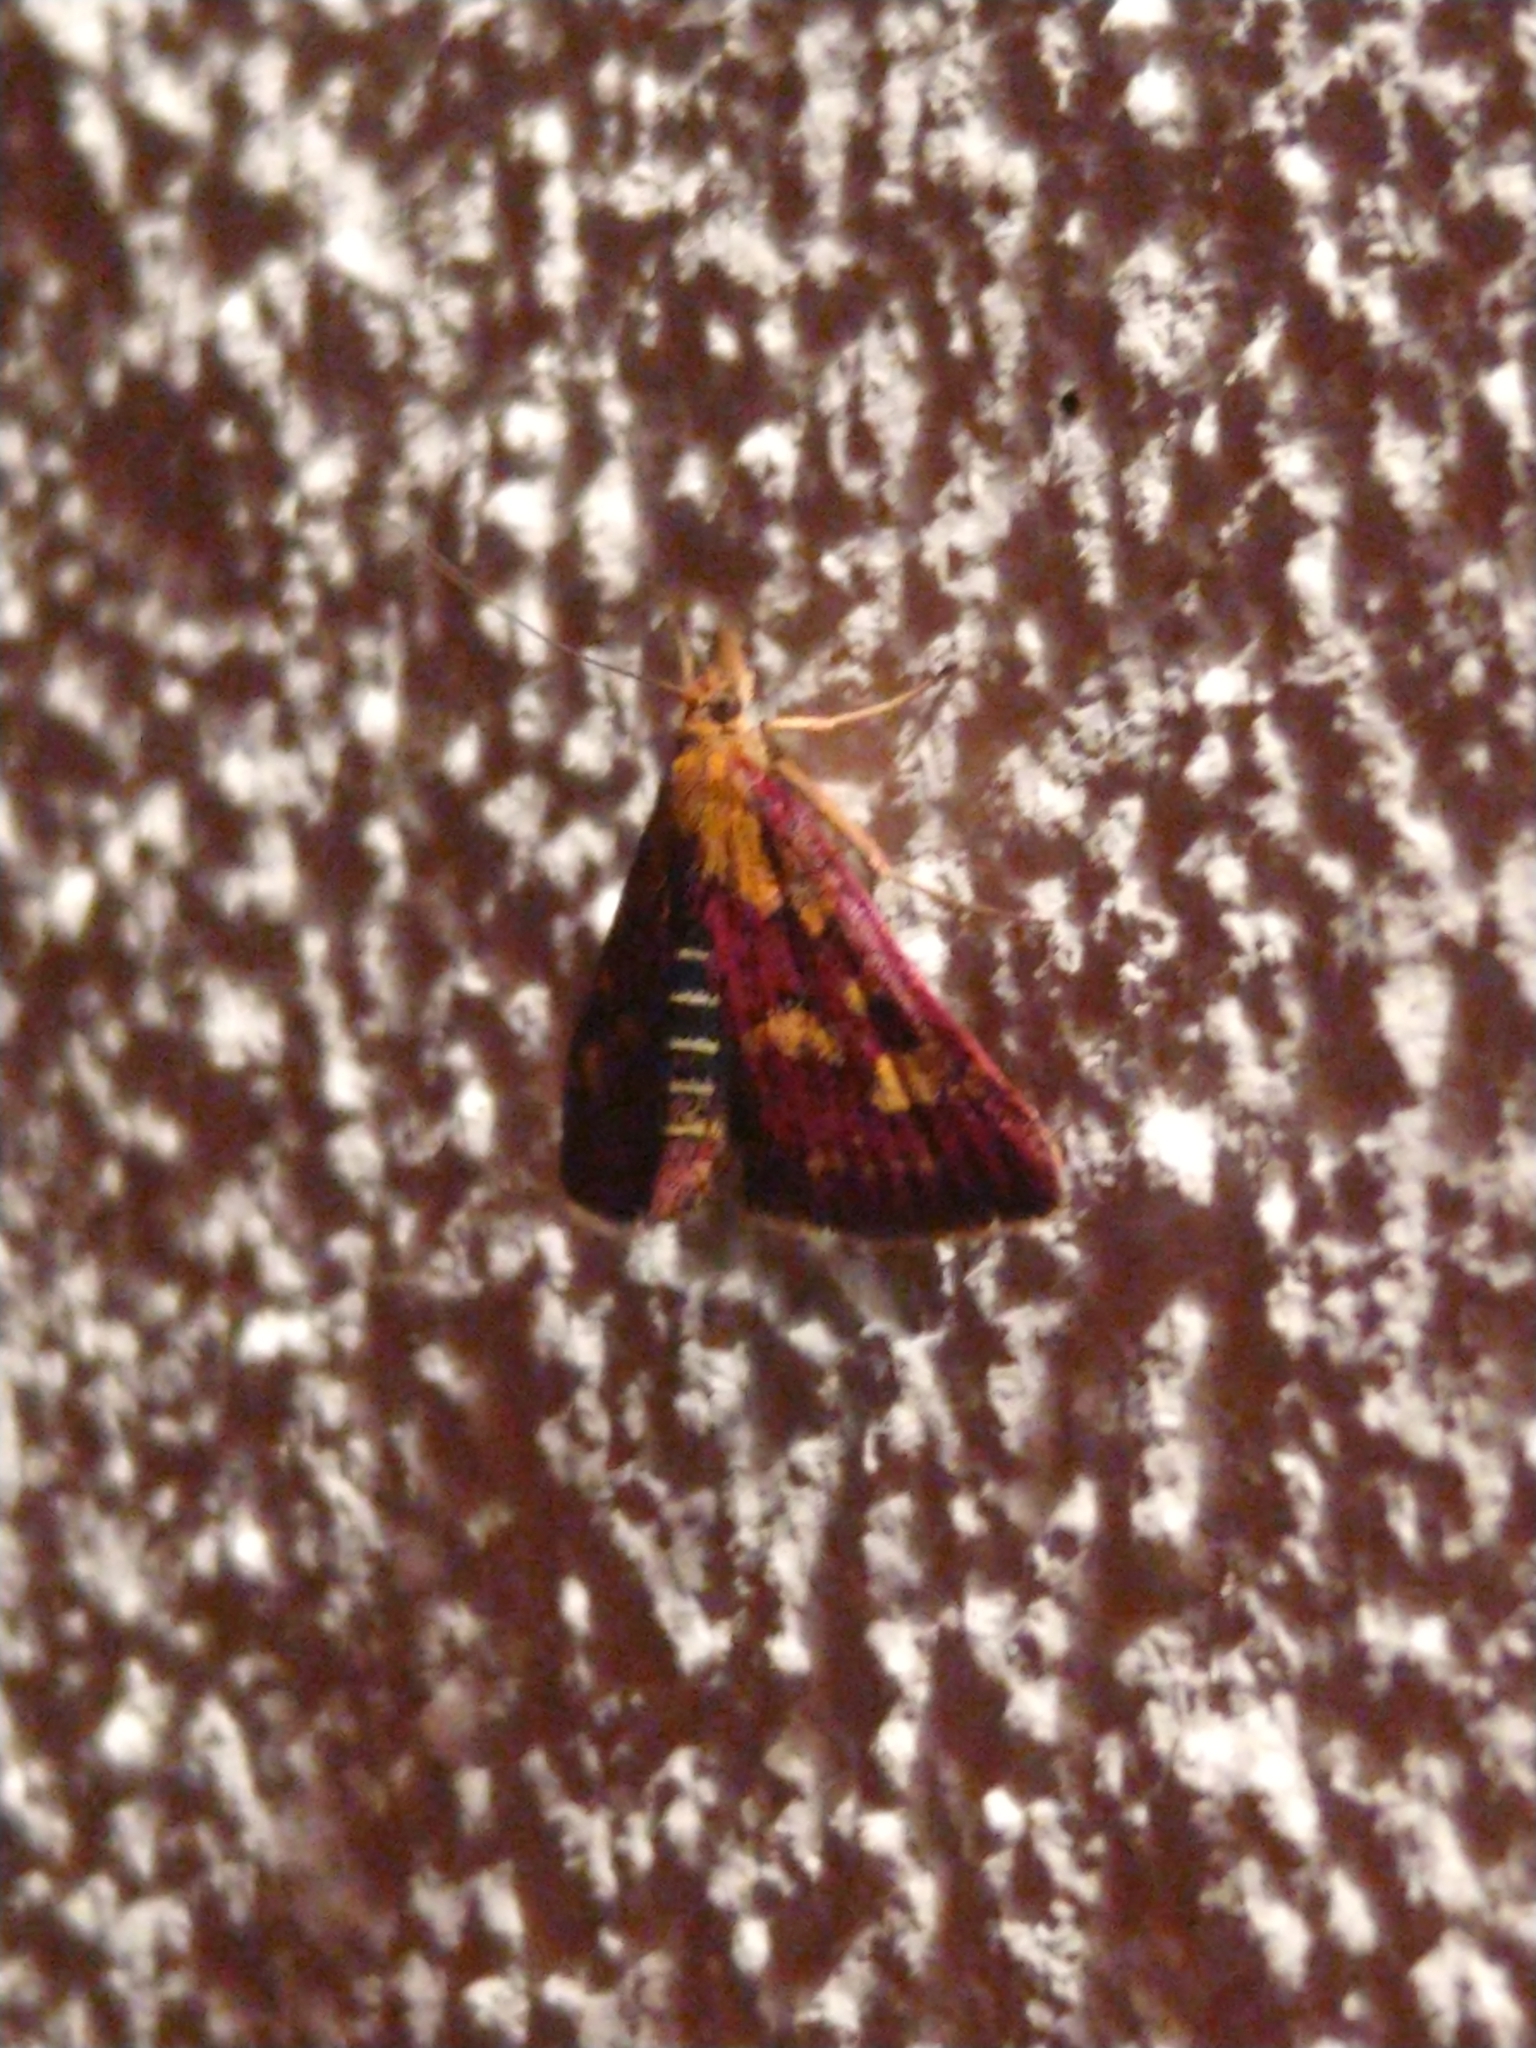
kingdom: Animalia
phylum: Arthropoda
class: Insecta
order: Lepidoptera
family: Crambidae
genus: Pyrausta
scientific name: Pyrausta purpuralis
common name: Common purple & gold
